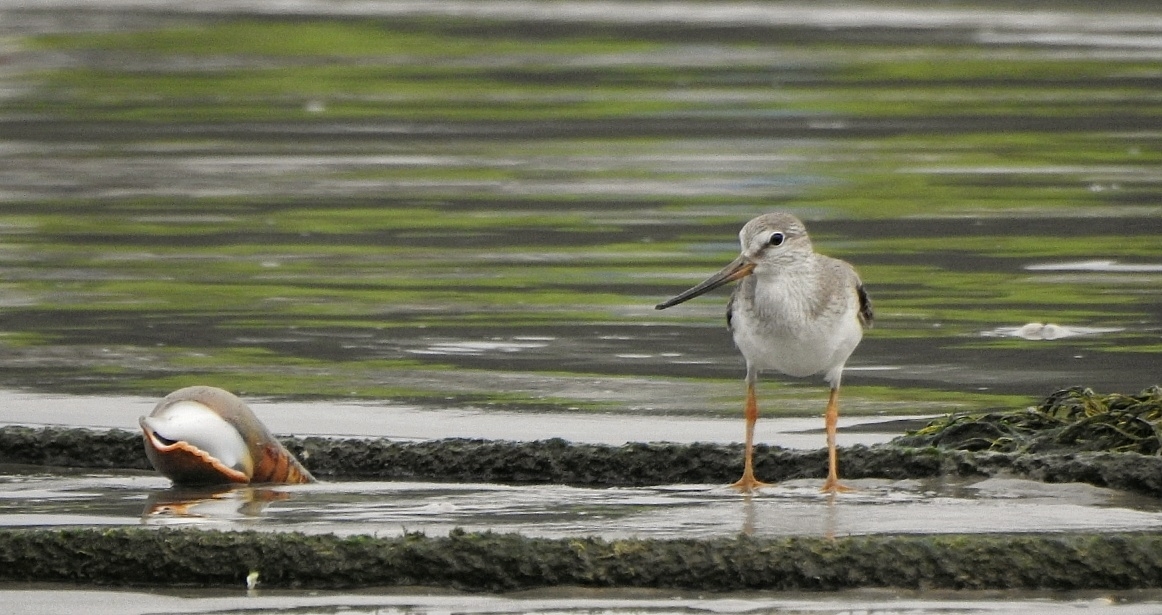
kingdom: Animalia
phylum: Chordata
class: Aves
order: Charadriiformes
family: Scolopacidae
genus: Xenus
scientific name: Xenus cinereus
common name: Terek sandpiper
